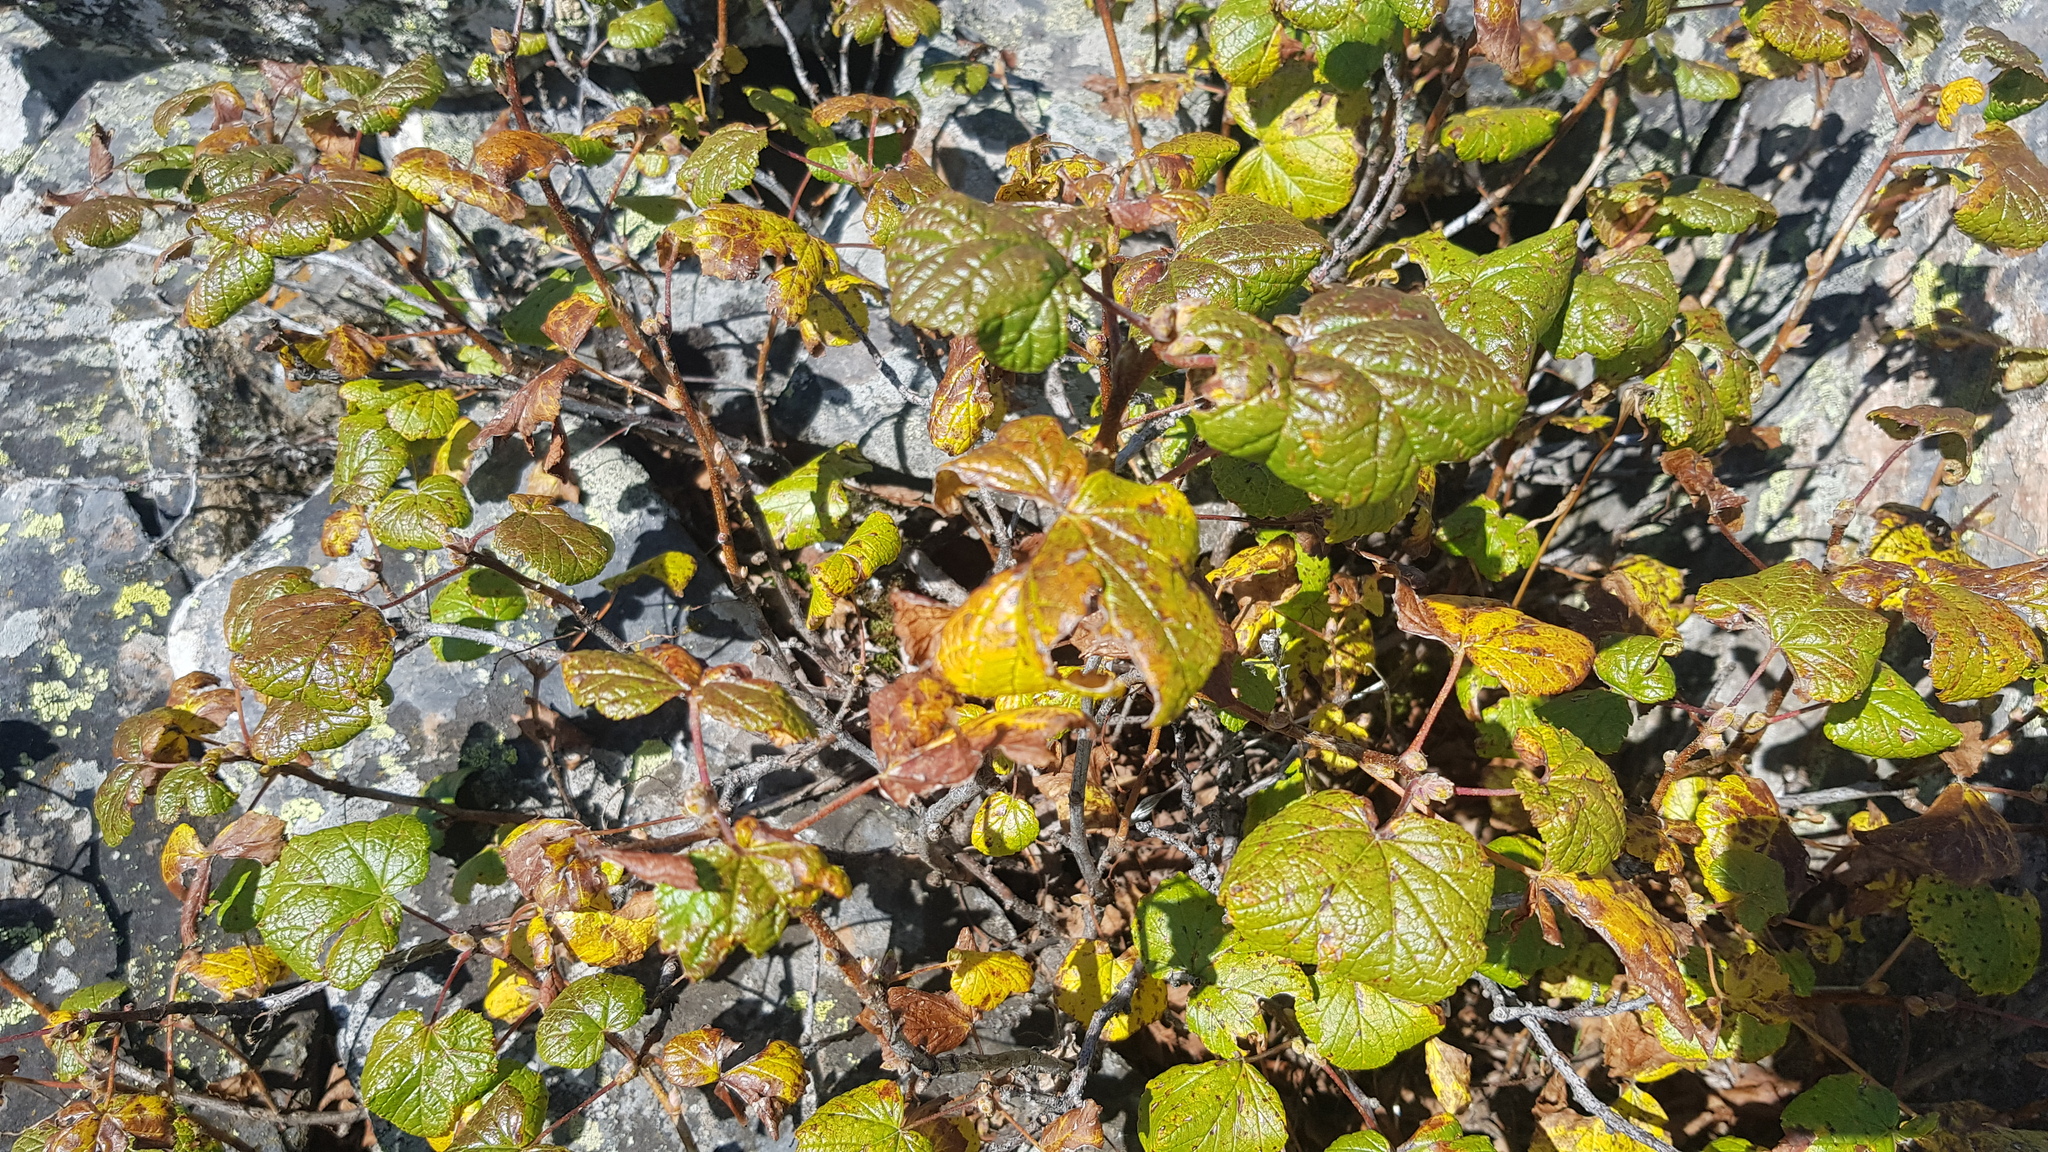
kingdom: Plantae
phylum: Tracheophyta
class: Magnoliopsida
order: Rosales
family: Rosaceae
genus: Rubus
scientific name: Rubus sachalinensis
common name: Red raspberry
